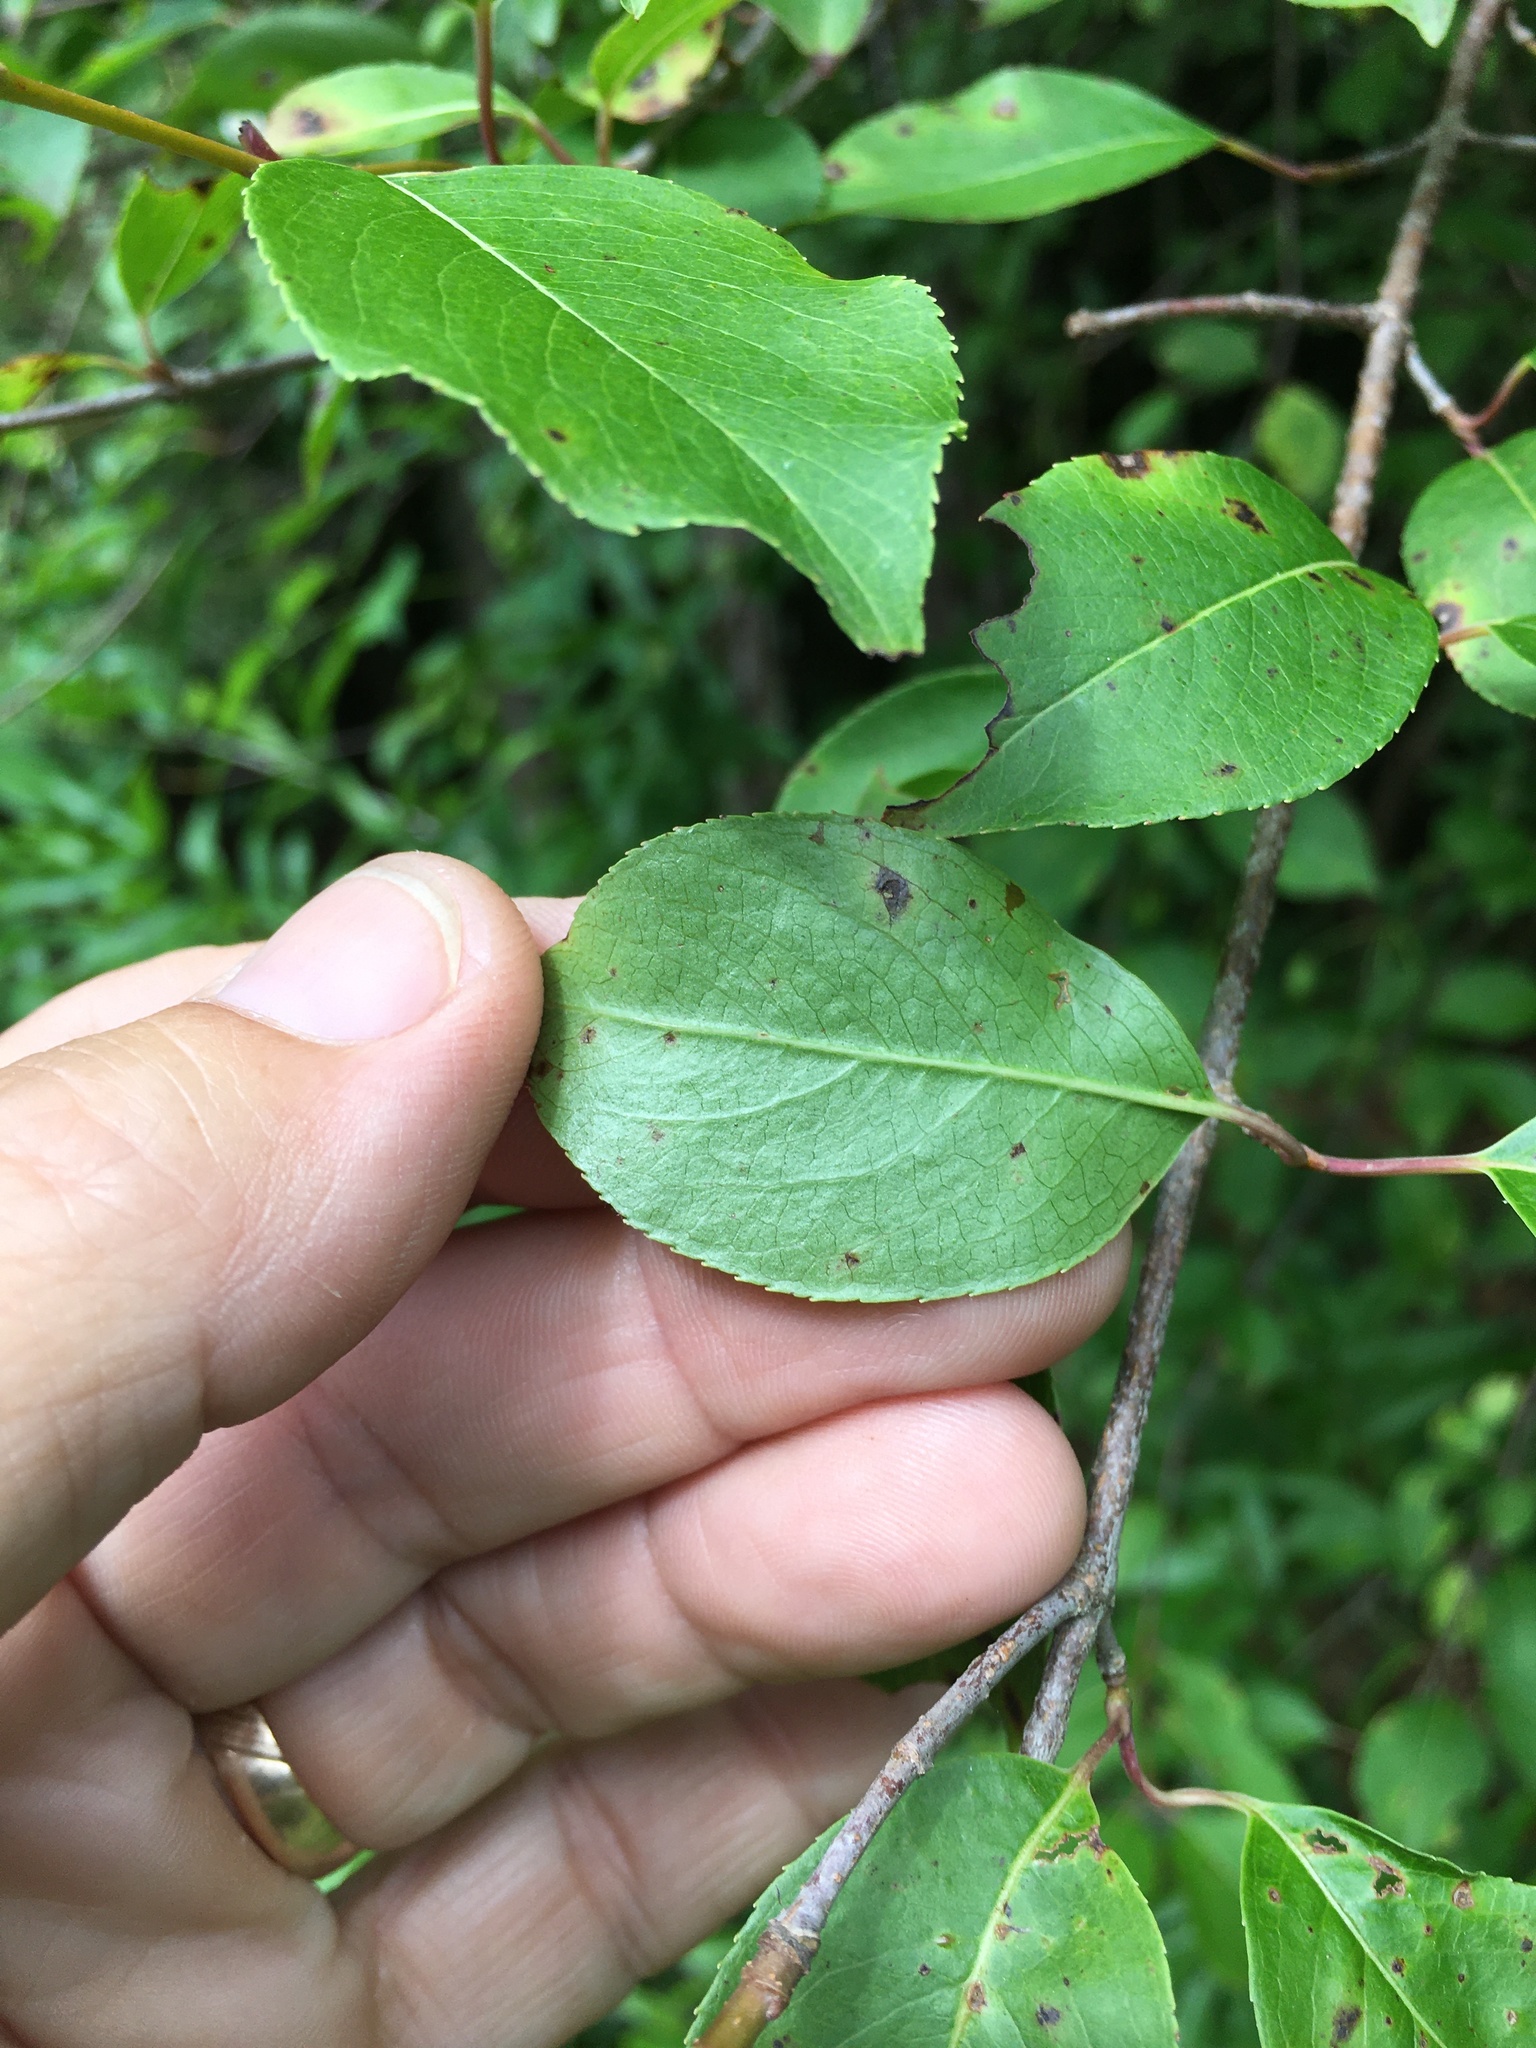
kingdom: Plantae
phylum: Tracheophyta
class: Magnoliopsida
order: Dipsacales
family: Viburnaceae
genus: Viburnum
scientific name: Viburnum prunifolium
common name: Black haw
